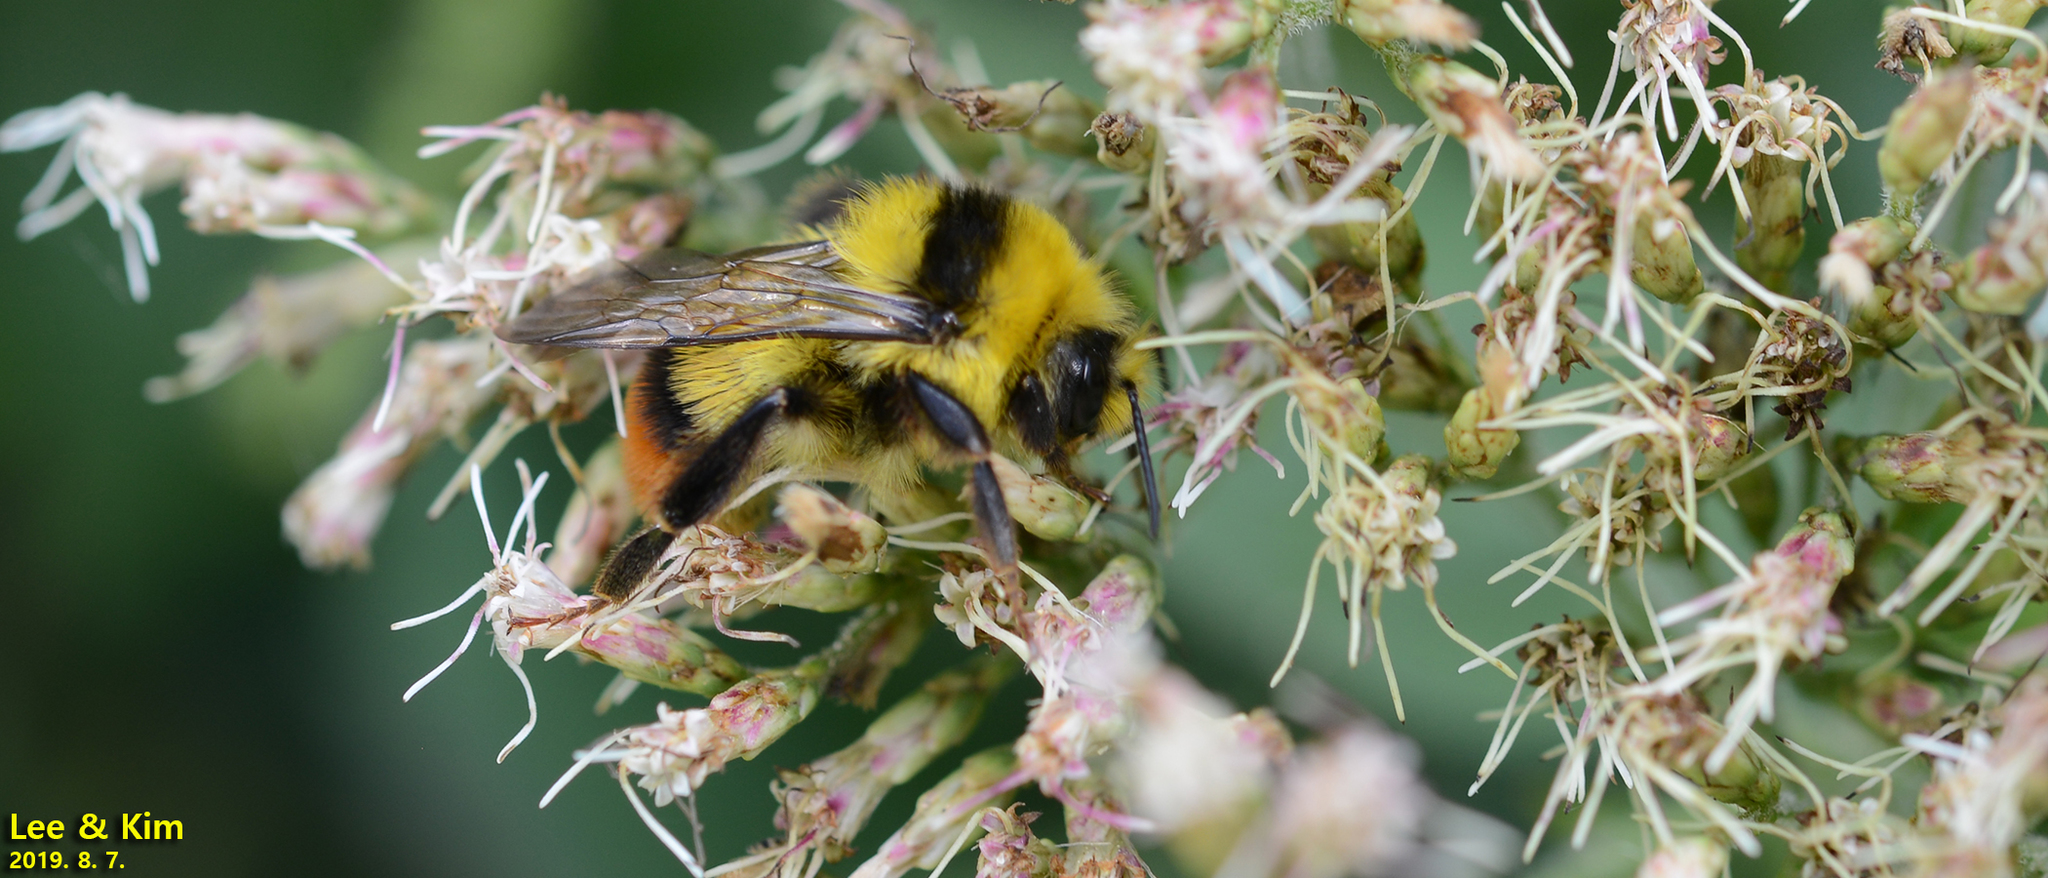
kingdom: Animalia
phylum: Arthropoda
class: Insecta
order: Hymenoptera
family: Apidae
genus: Bombus
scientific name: Bombus ignitus
